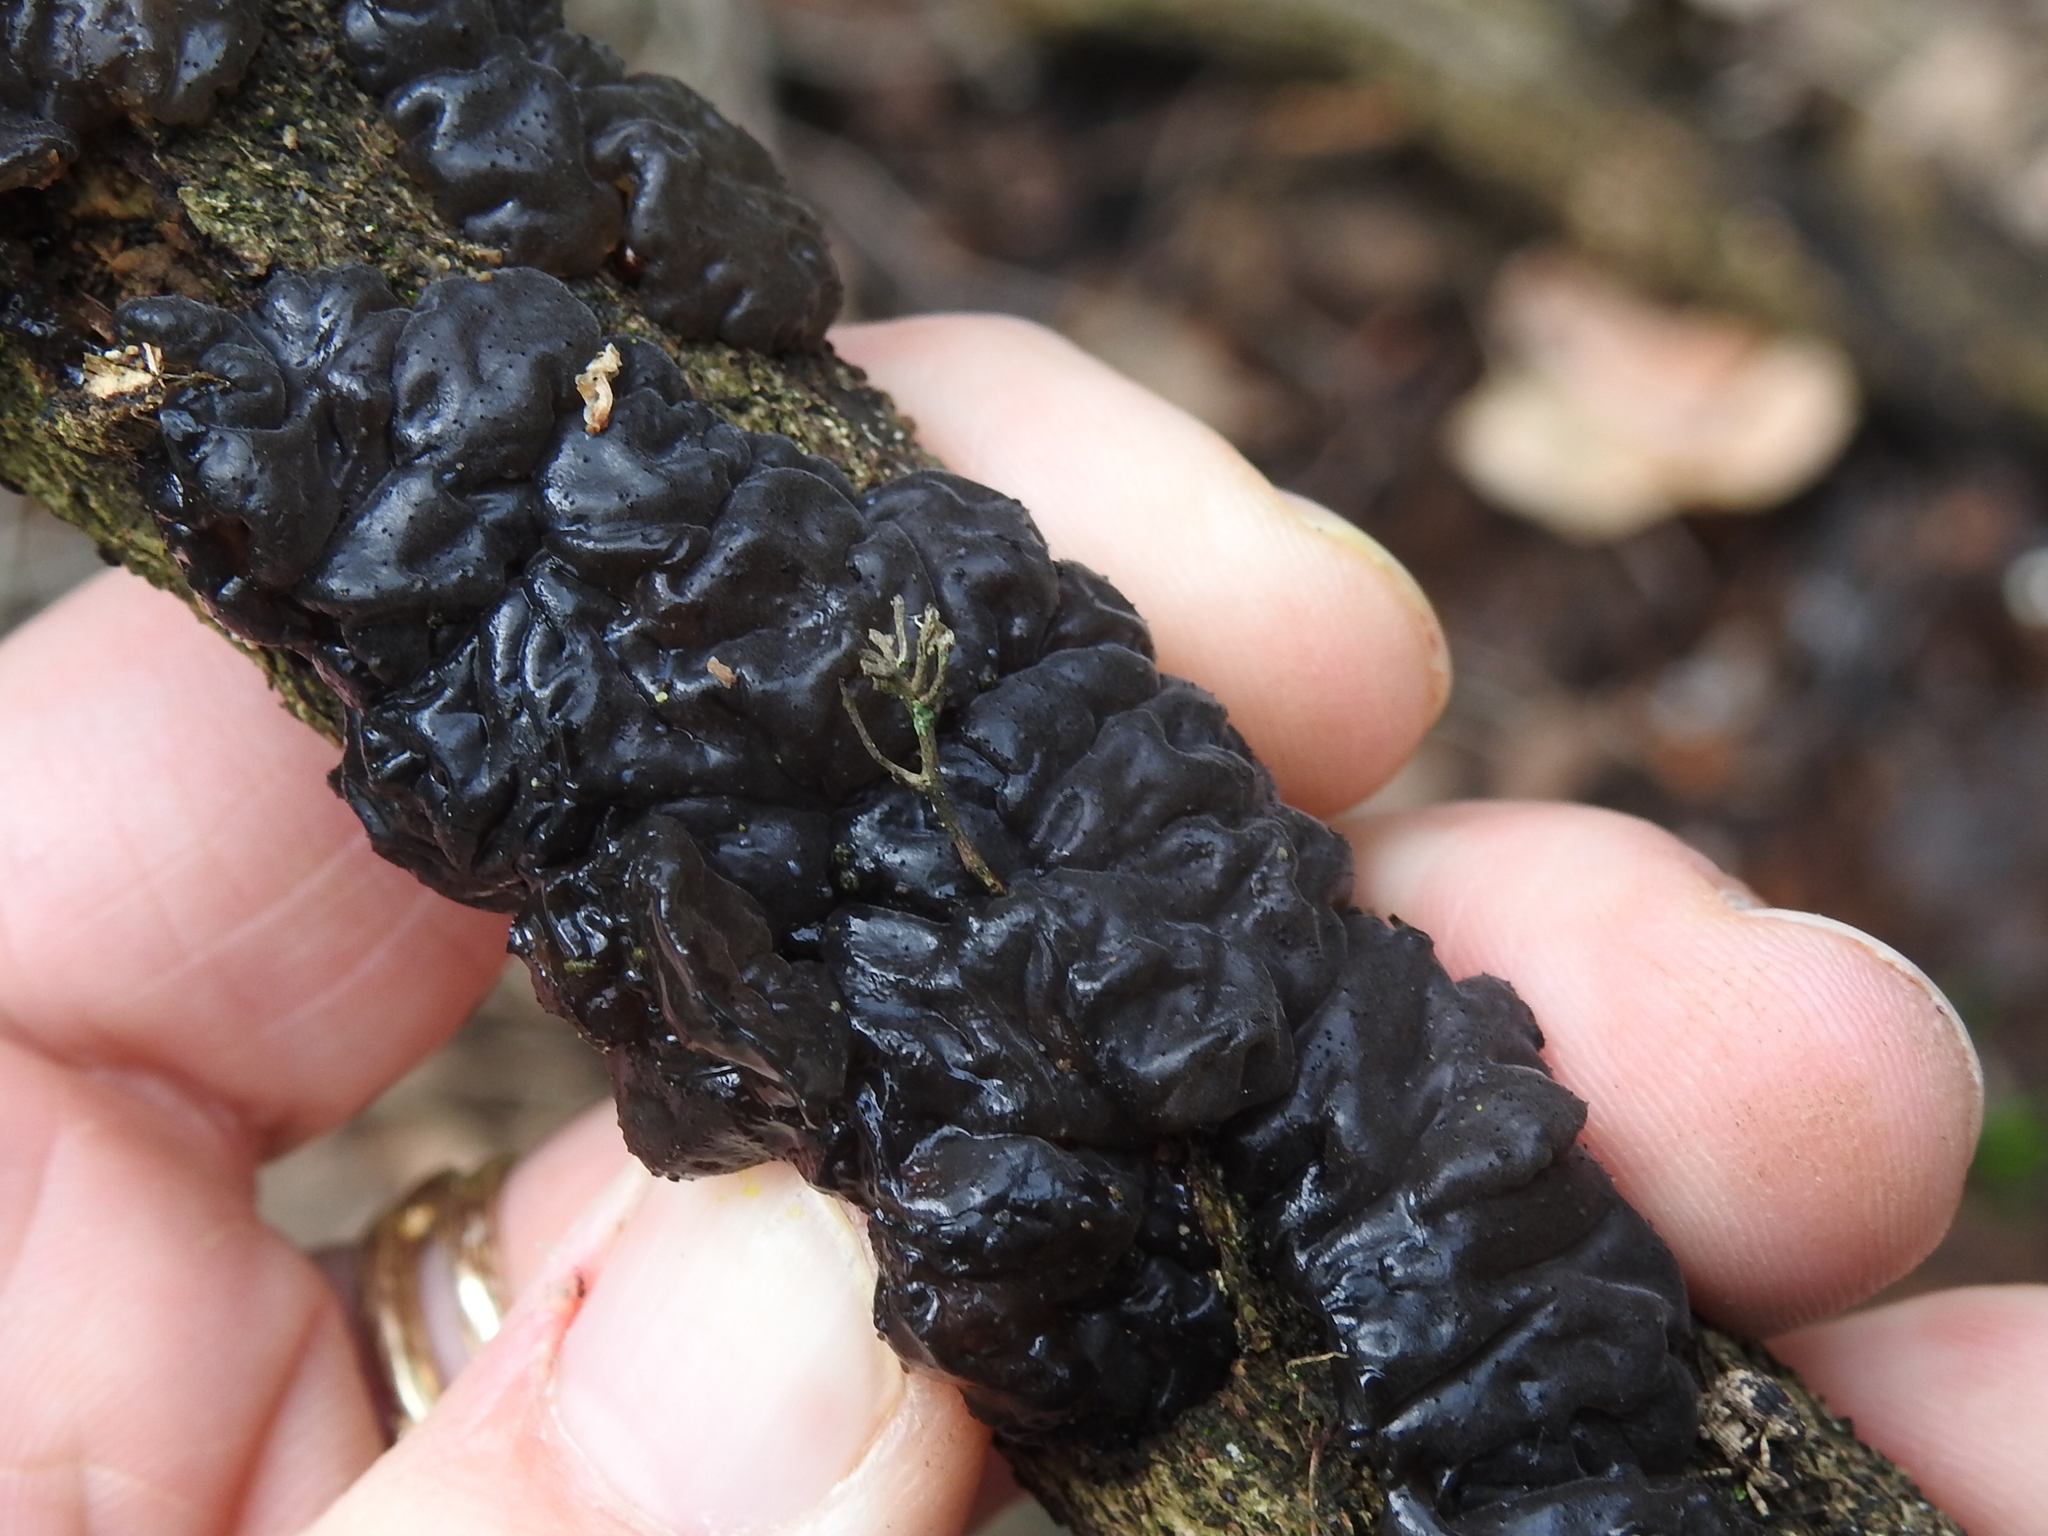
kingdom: Fungi
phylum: Basidiomycota
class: Agaricomycetes
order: Auriculariales
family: Auriculariaceae
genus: Exidia
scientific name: Exidia glandulosa
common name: Witches' butter
